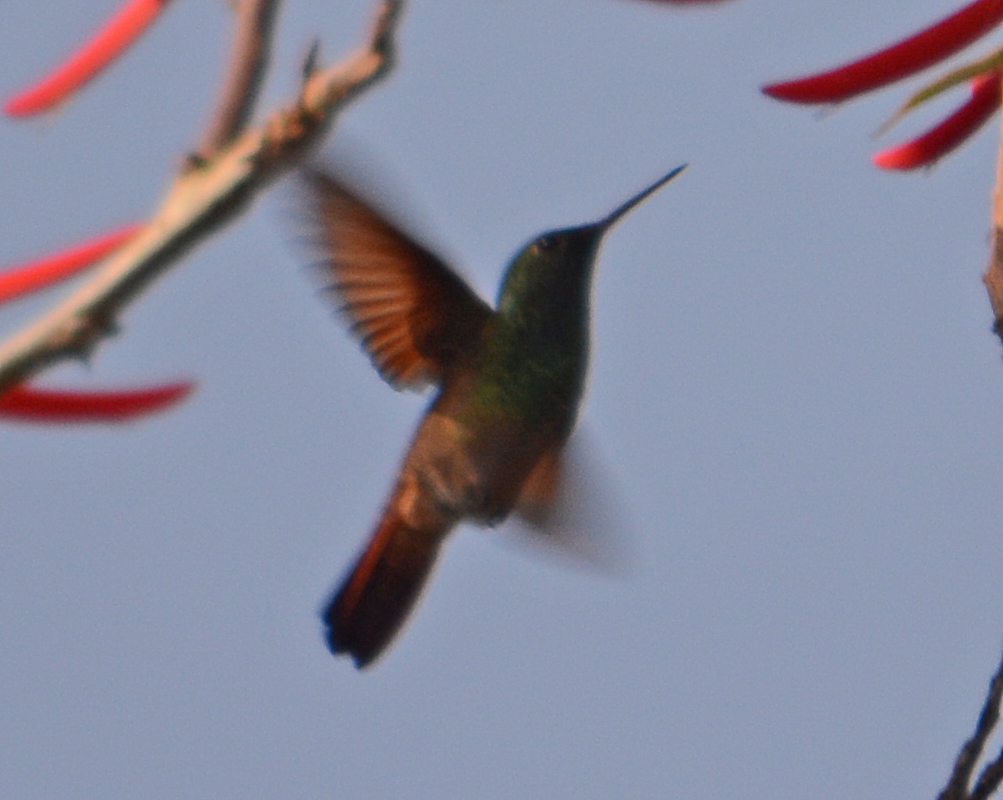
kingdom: Animalia
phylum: Chordata
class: Aves
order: Apodiformes
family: Trochilidae
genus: Saucerottia
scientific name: Saucerottia beryllina
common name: Berylline hummingbird
